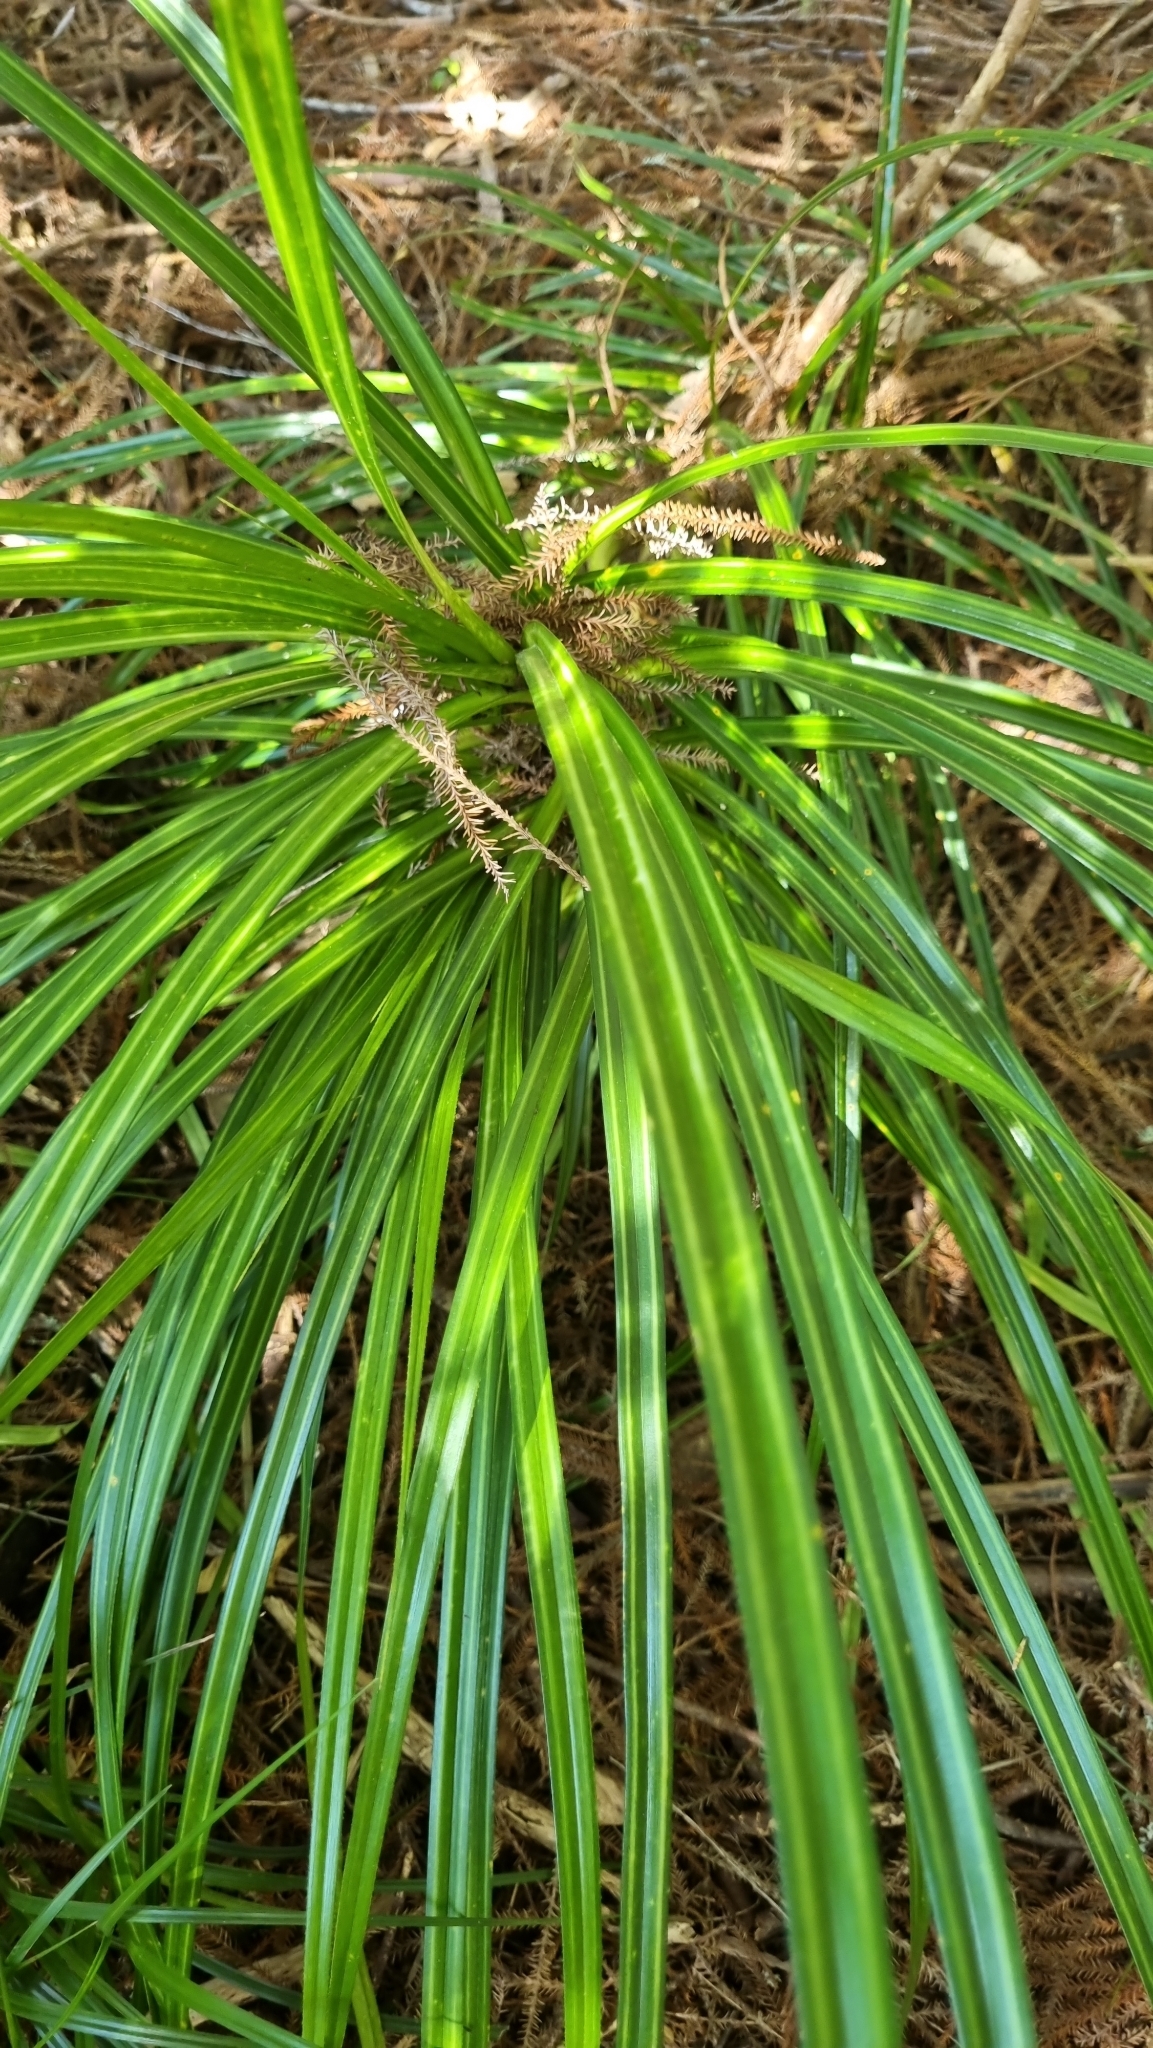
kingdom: Plantae
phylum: Tracheophyta
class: Liliopsida
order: Pandanales
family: Pandanaceae
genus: Freycinetia
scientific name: Freycinetia banksii
